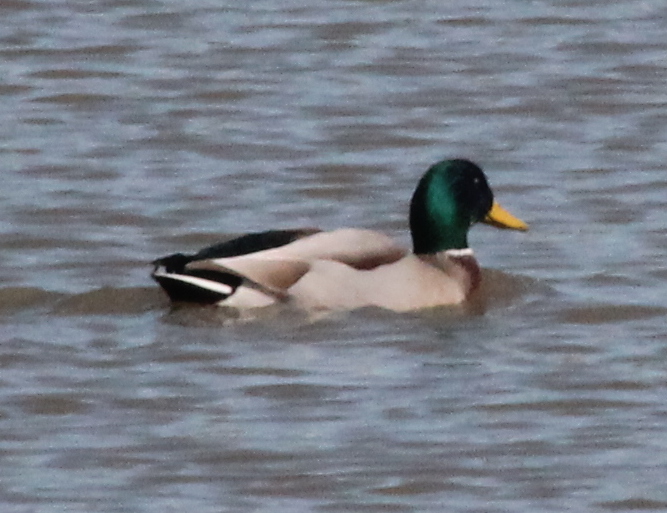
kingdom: Animalia
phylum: Chordata
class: Aves
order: Anseriformes
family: Anatidae
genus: Anas
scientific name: Anas platyrhynchos
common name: Mallard
